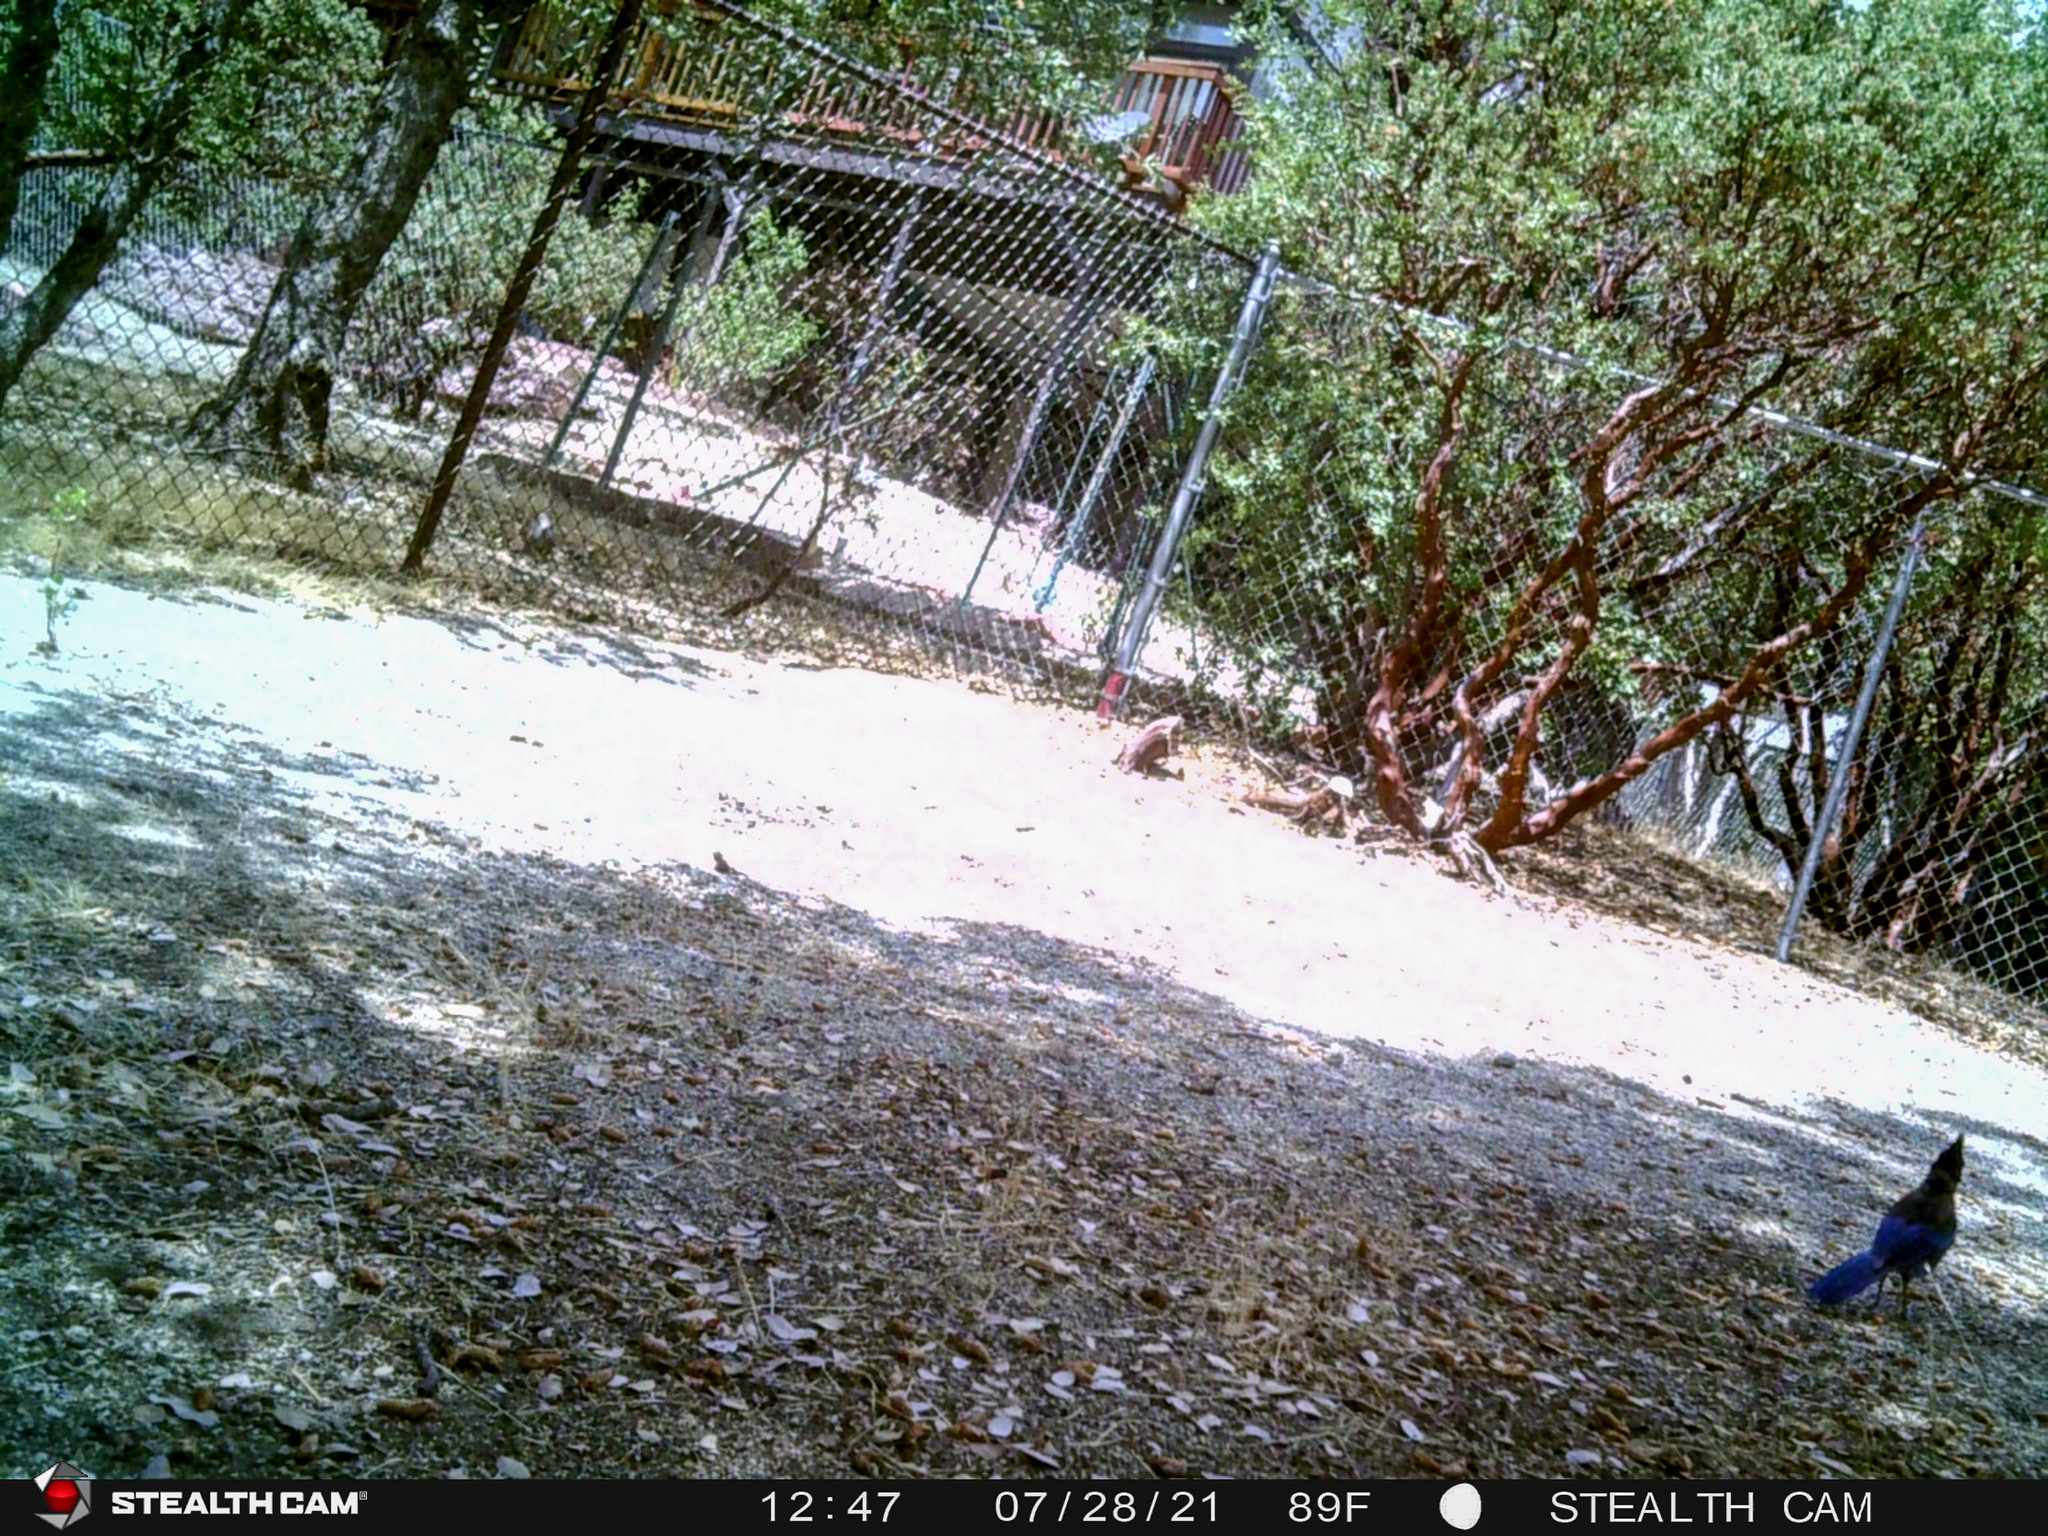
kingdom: Animalia
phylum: Chordata
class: Aves
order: Passeriformes
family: Corvidae
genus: Cyanocitta
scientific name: Cyanocitta stelleri
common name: Steller's jay
